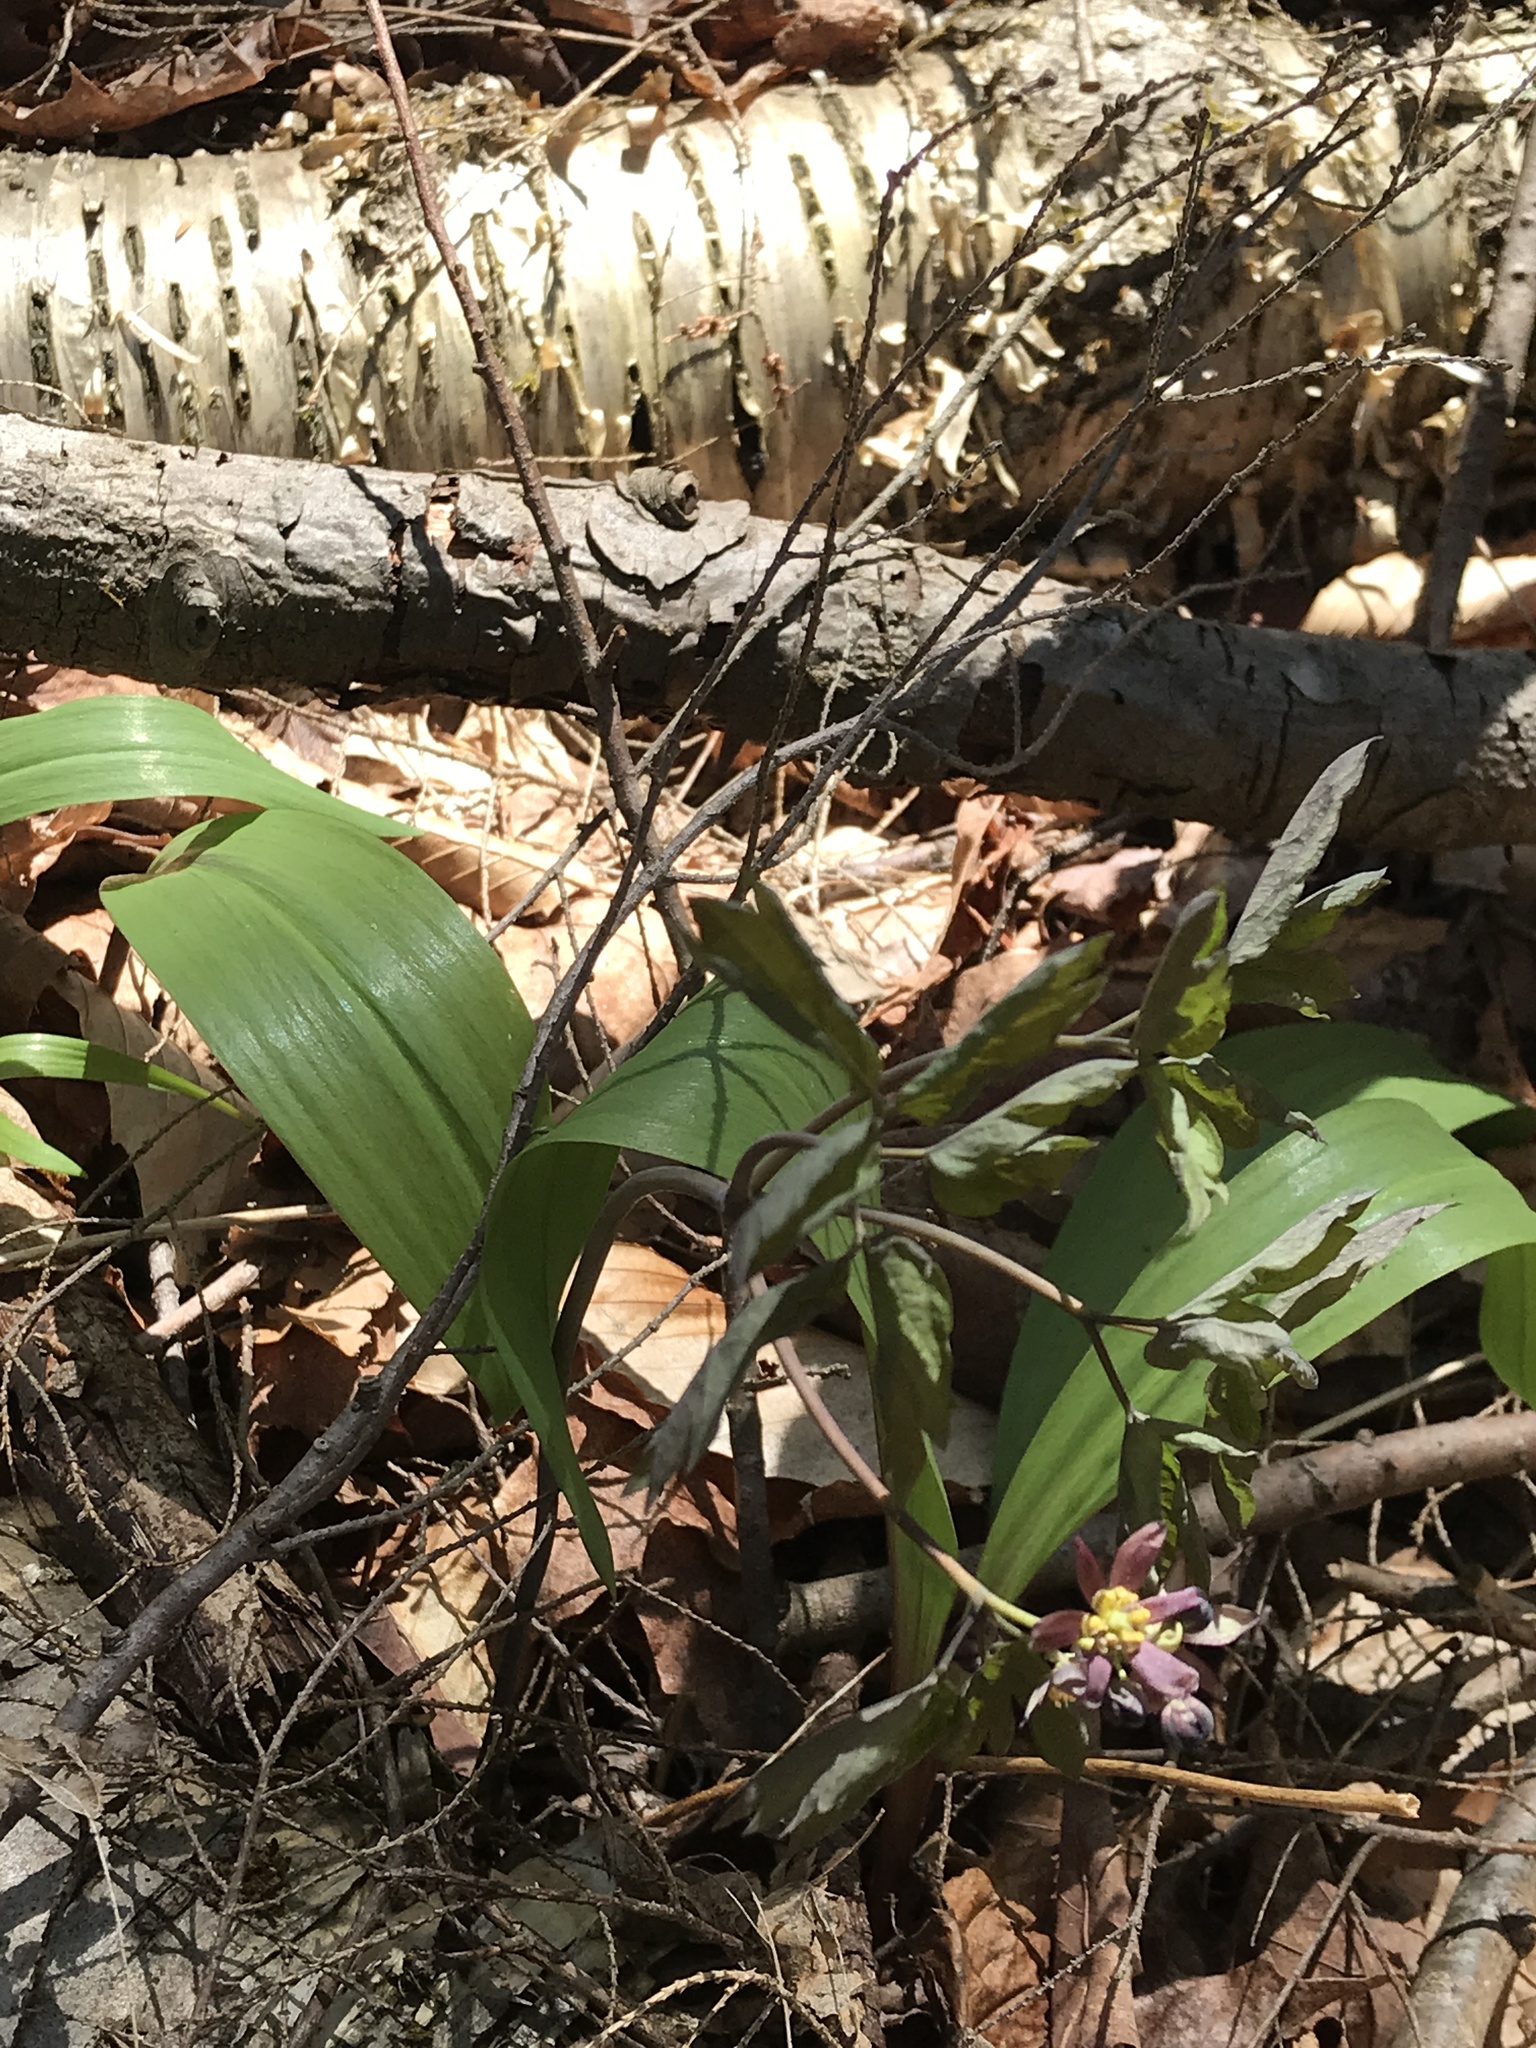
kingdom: Plantae
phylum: Tracheophyta
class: Liliopsida
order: Asparagales
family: Amaryllidaceae
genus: Allium
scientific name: Allium tricoccum
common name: Ramp
